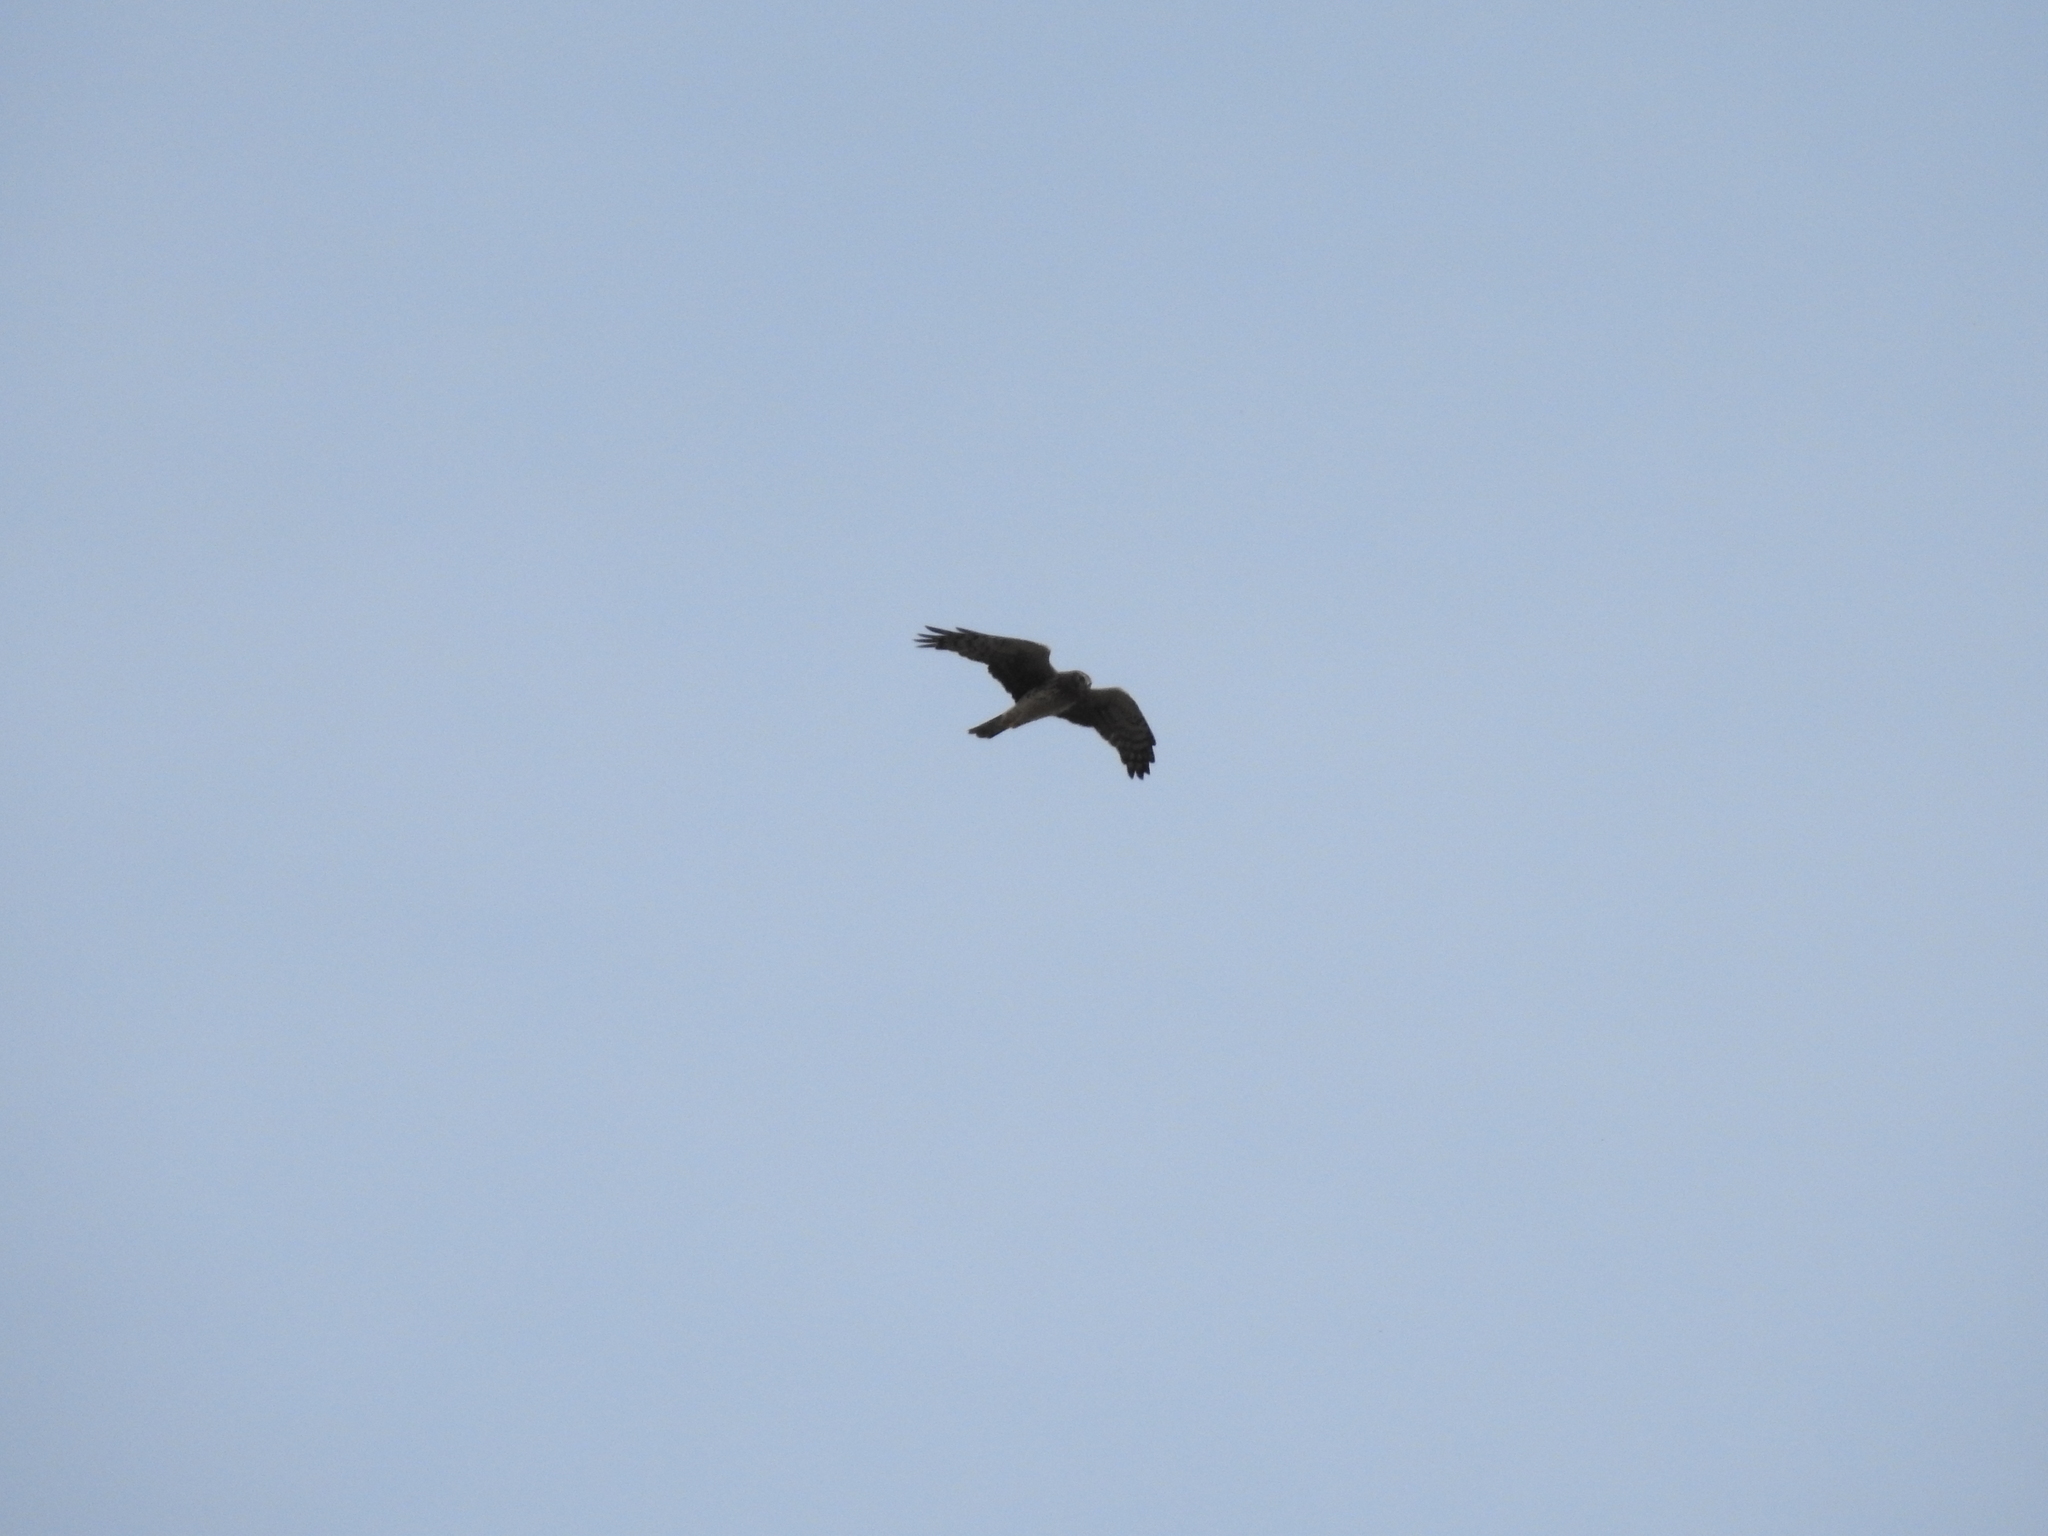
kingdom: Animalia
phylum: Chordata
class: Aves
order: Accipitriformes
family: Accipitridae
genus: Circus
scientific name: Circus cyaneus
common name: Hen harrier
